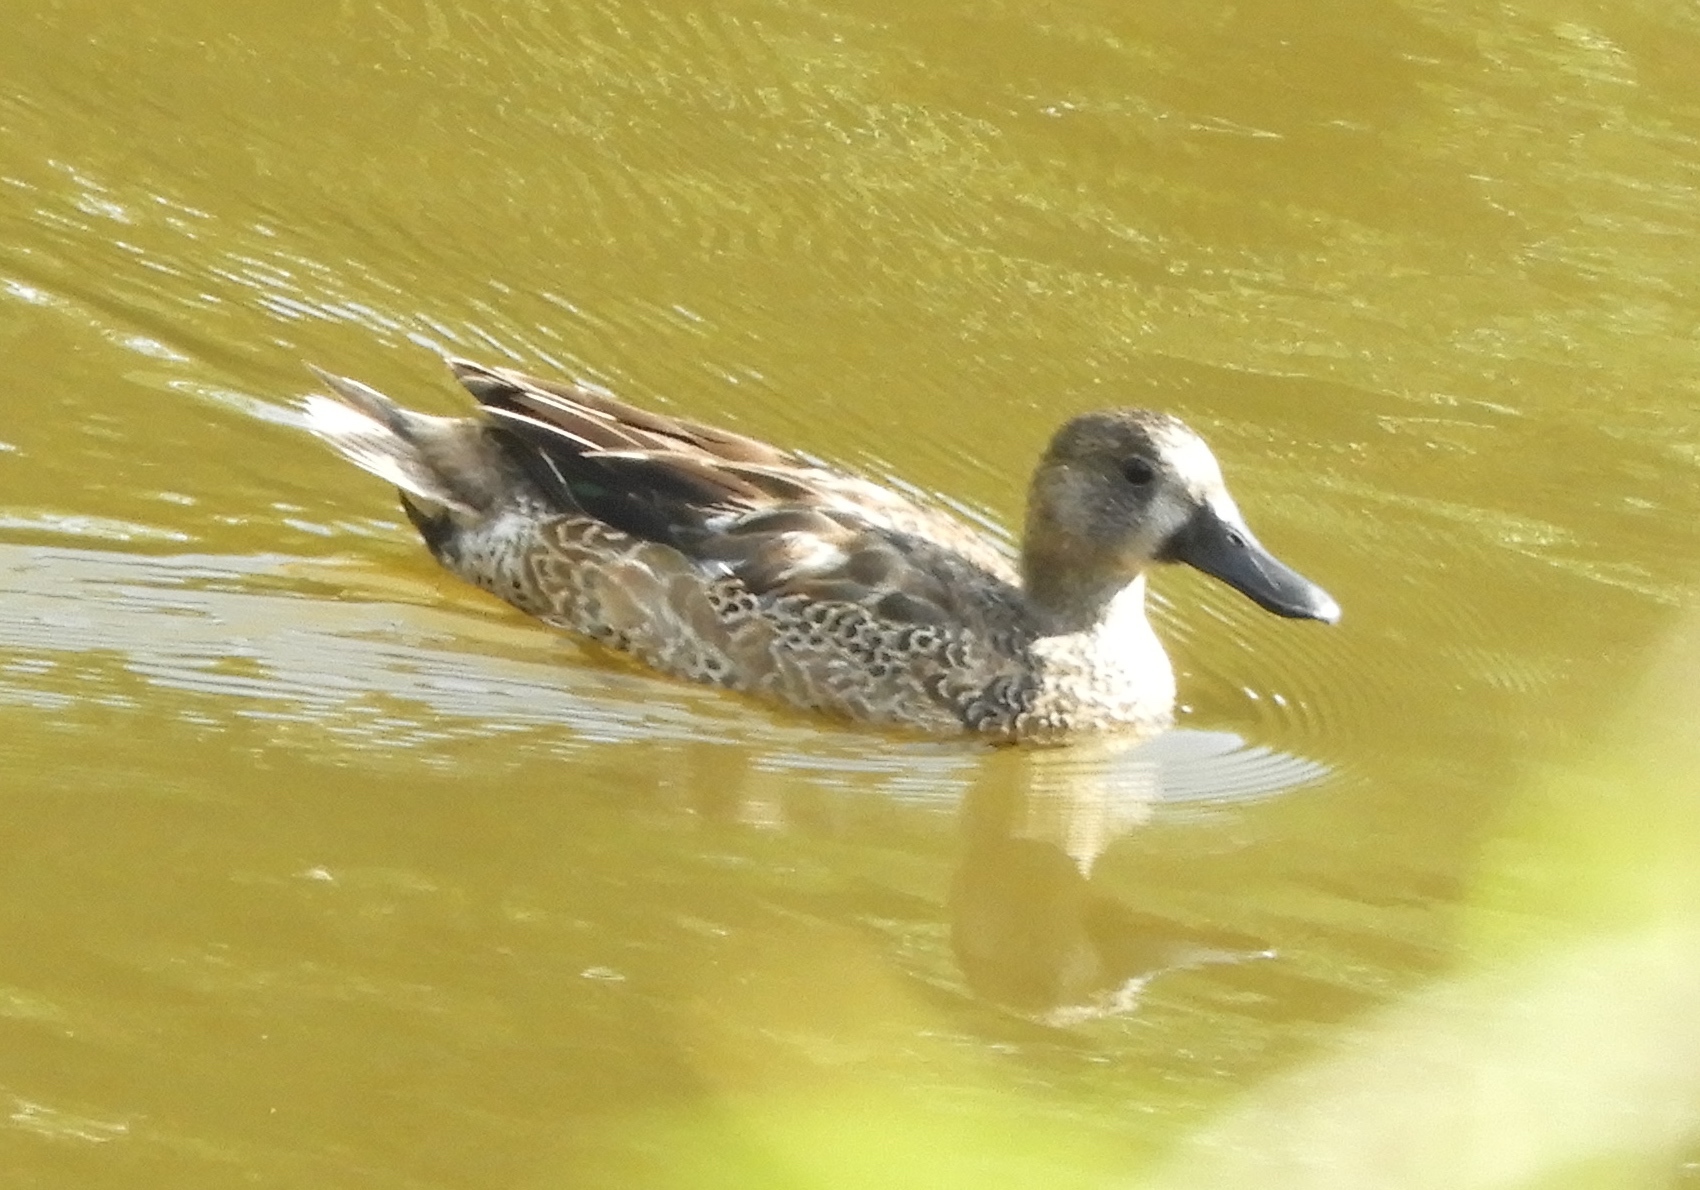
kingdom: Animalia
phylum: Chordata
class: Aves
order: Anseriformes
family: Anatidae
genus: Spatula
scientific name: Spatula discors
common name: Blue-winged teal
